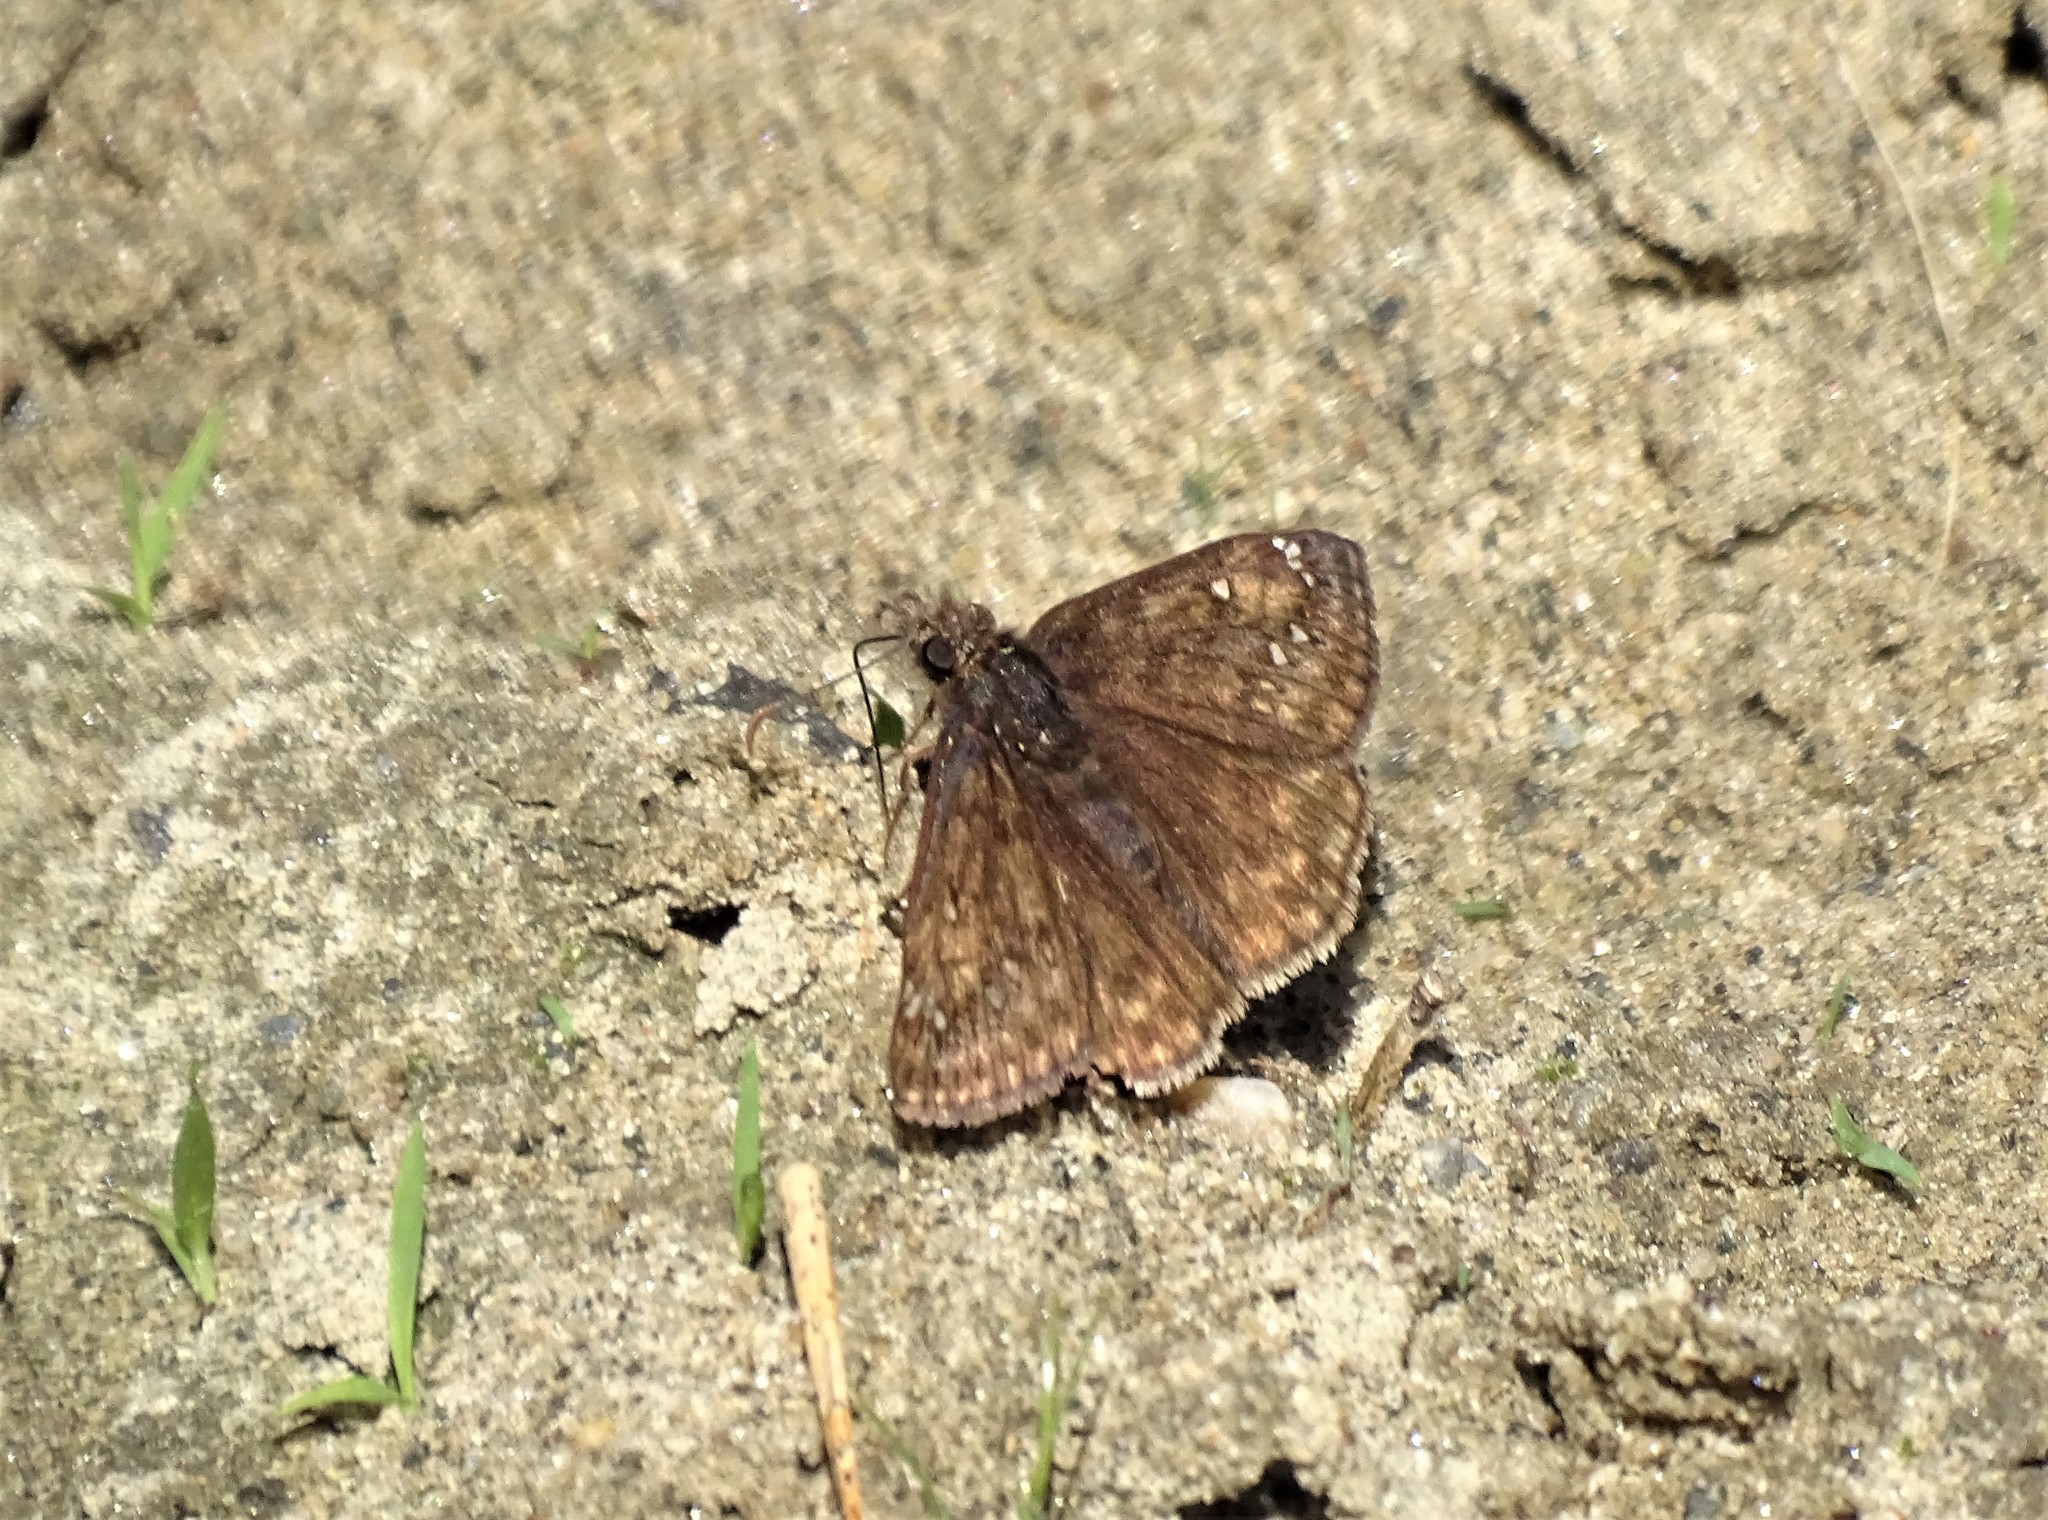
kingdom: Animalia
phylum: Arthropoda
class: Insecta
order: Lepidoptera
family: Hesperiidae
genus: Erynnis
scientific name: Erynnis juvenalis
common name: Juvenal's duskywing
